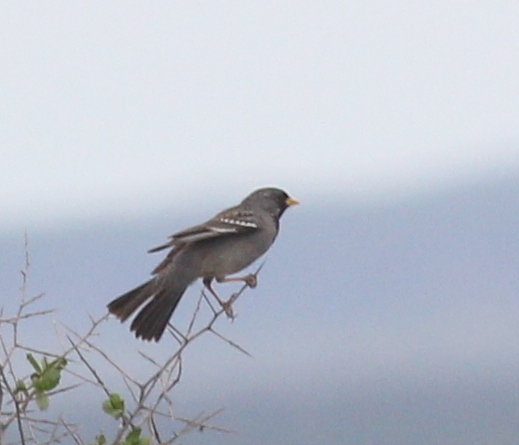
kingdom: Animalia
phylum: Chordata
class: Aves
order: Passeriformes
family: Thraupidae
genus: Rhopospina
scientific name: Rhopospina fruticeti
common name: Mourning sierra finch
